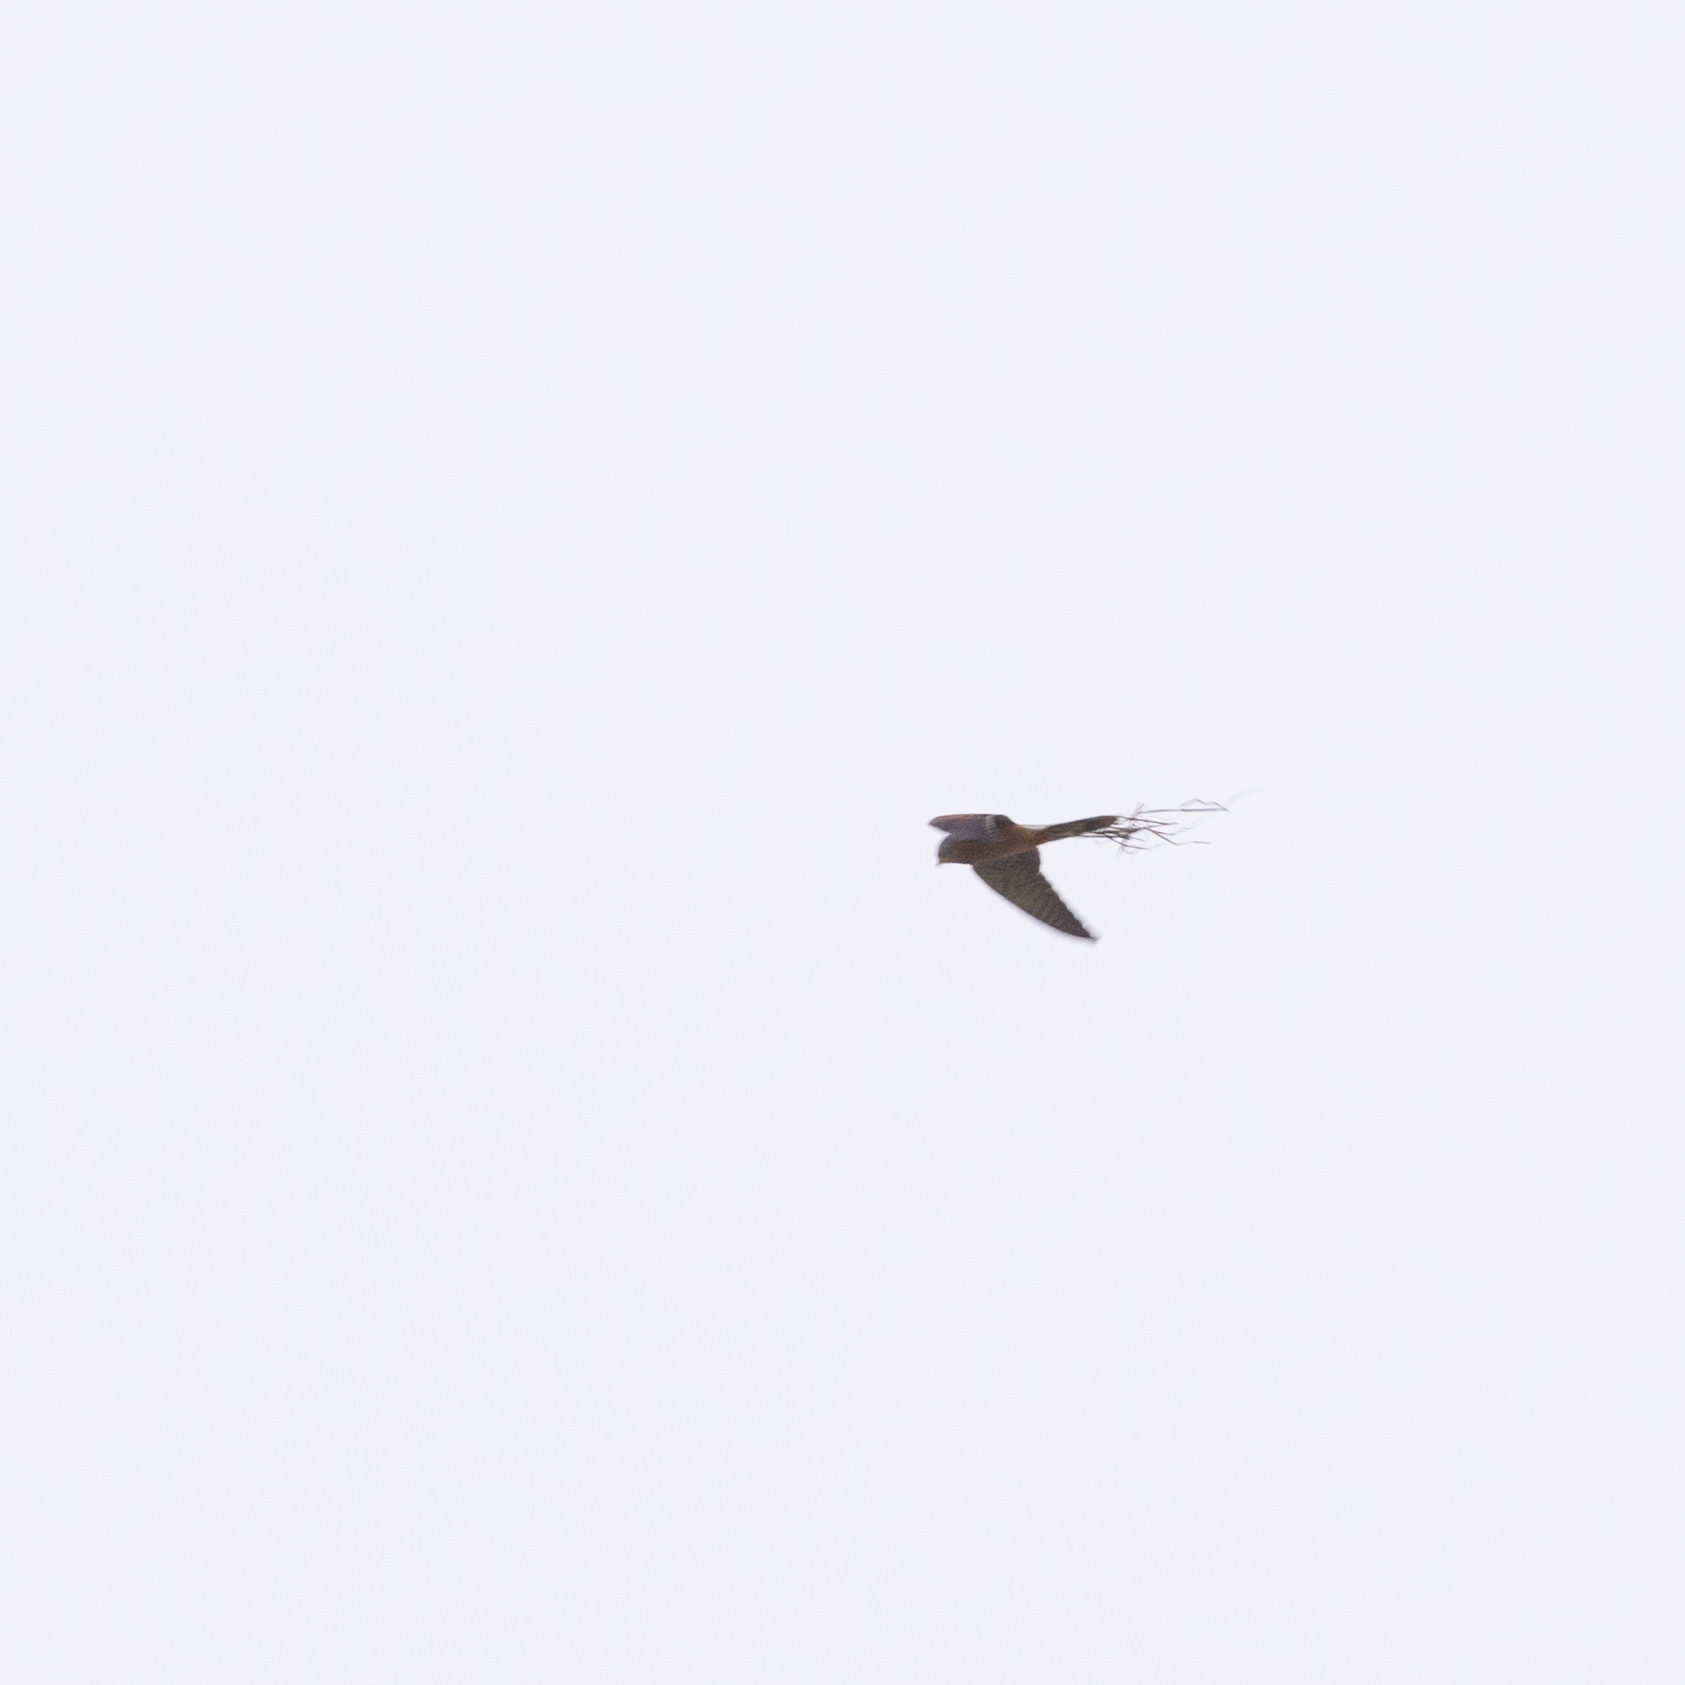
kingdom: Animalia
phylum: Chordata
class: Aves
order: Falconiformes
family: Falconidae
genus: Falco
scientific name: Falco tinnunculus
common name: Common kestrel
